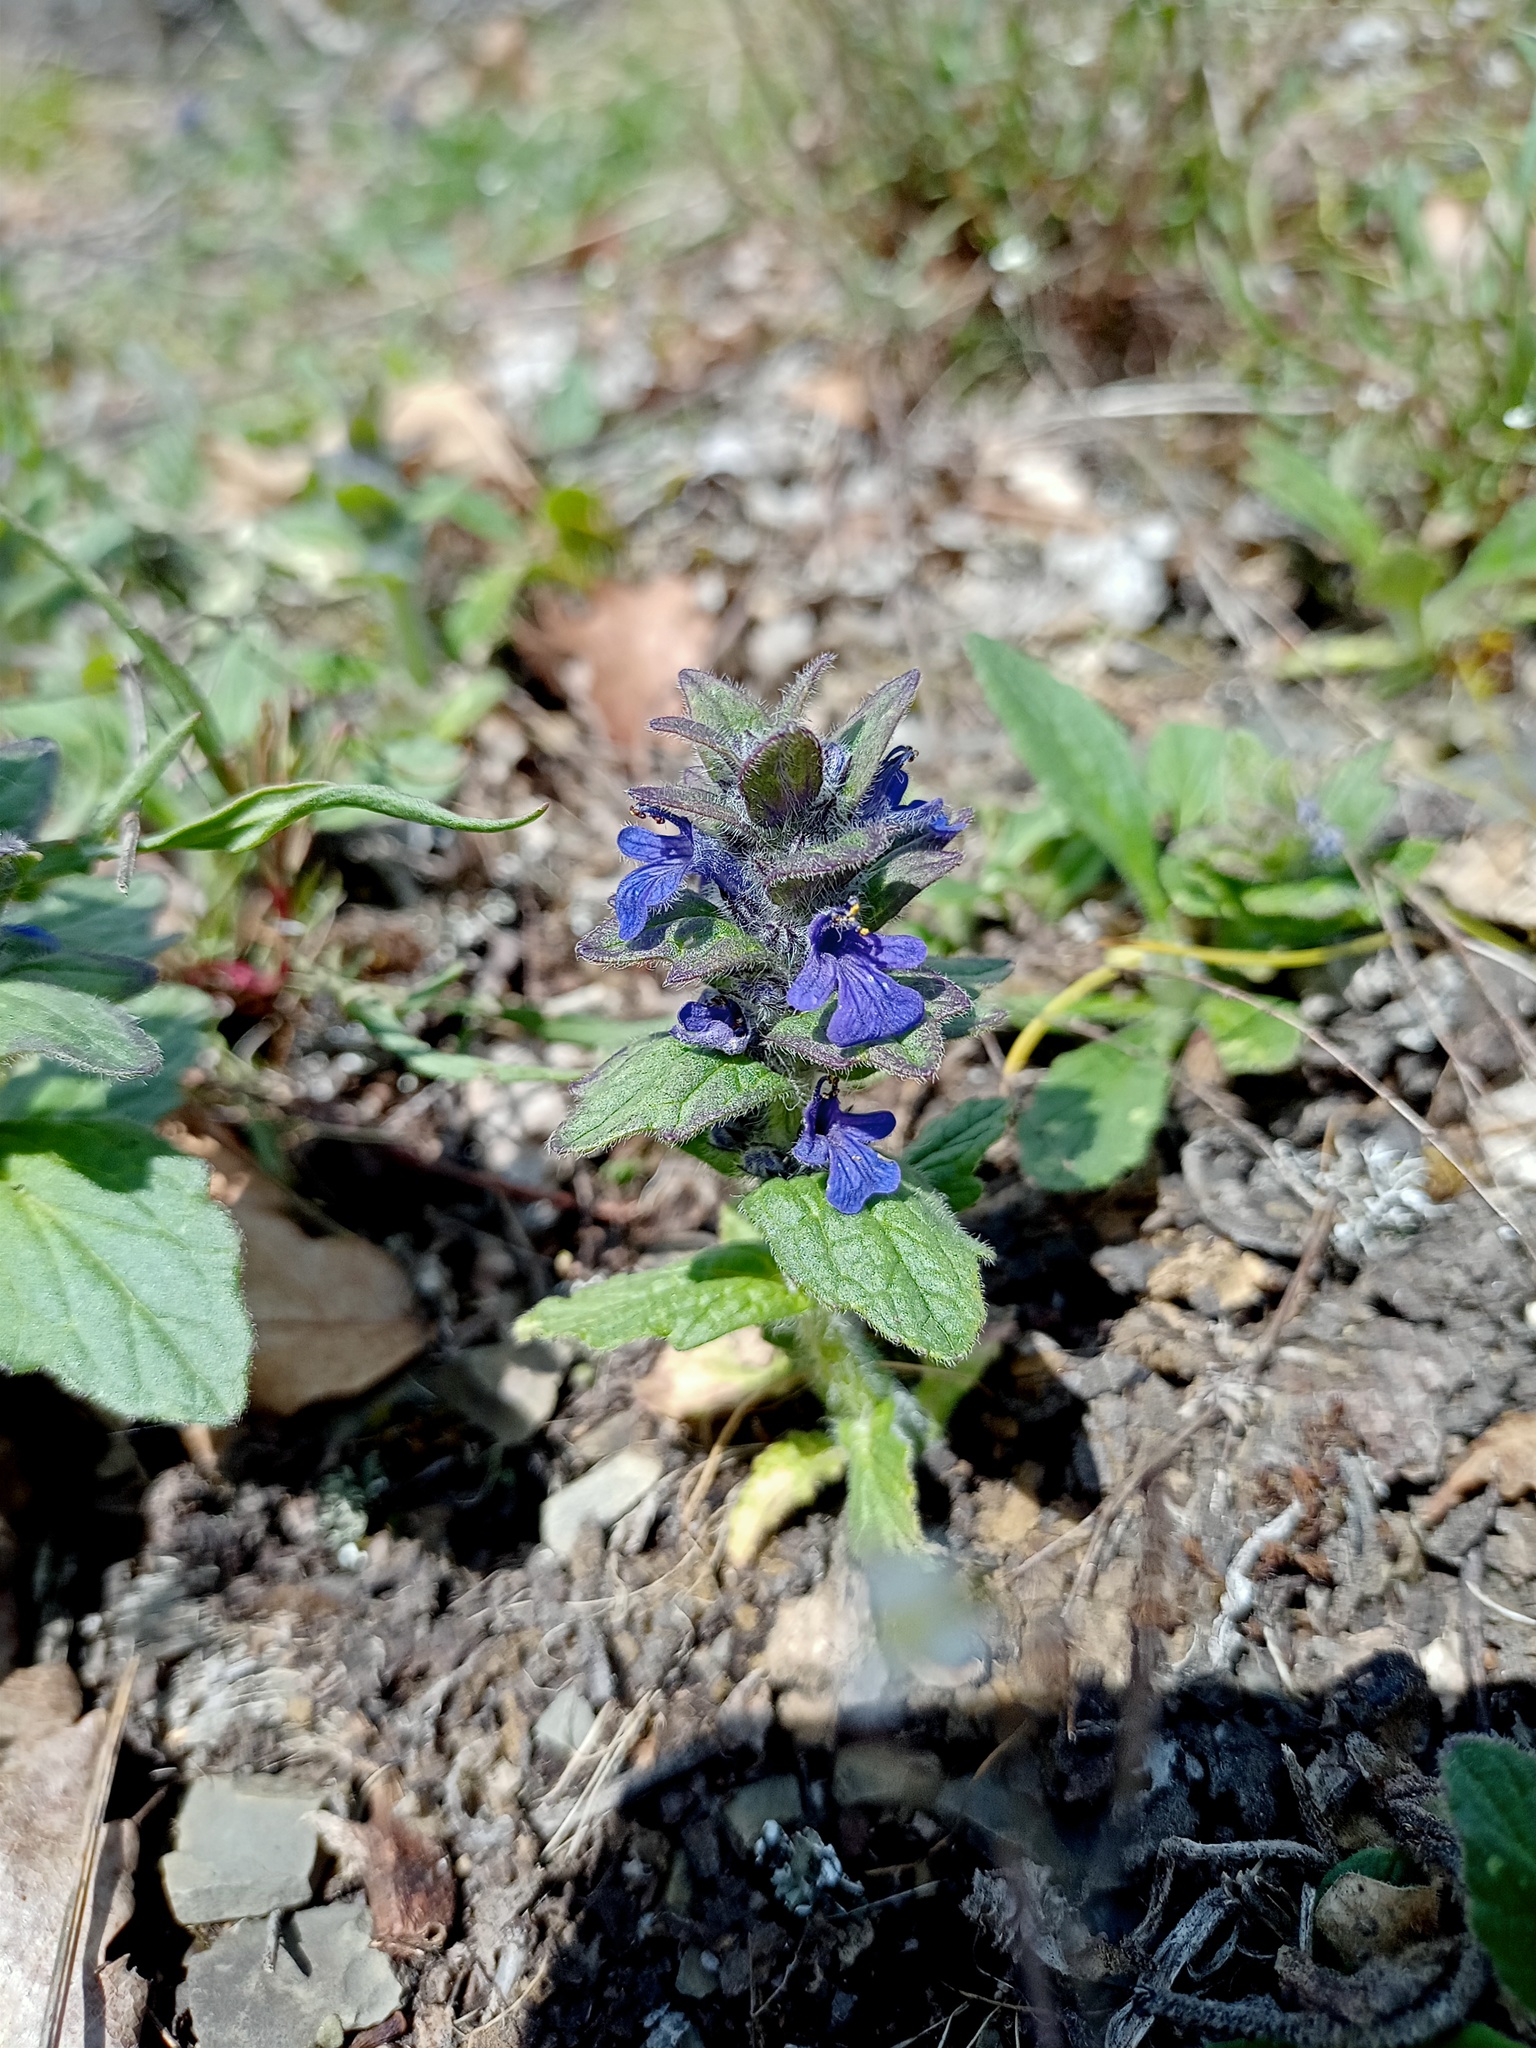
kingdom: Plantae
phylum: Tracheophyta
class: Magnoliopsida
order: Lamiales
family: Lamiaceae
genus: Ajuga
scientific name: Ajuga genevensis
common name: Blue bugle
